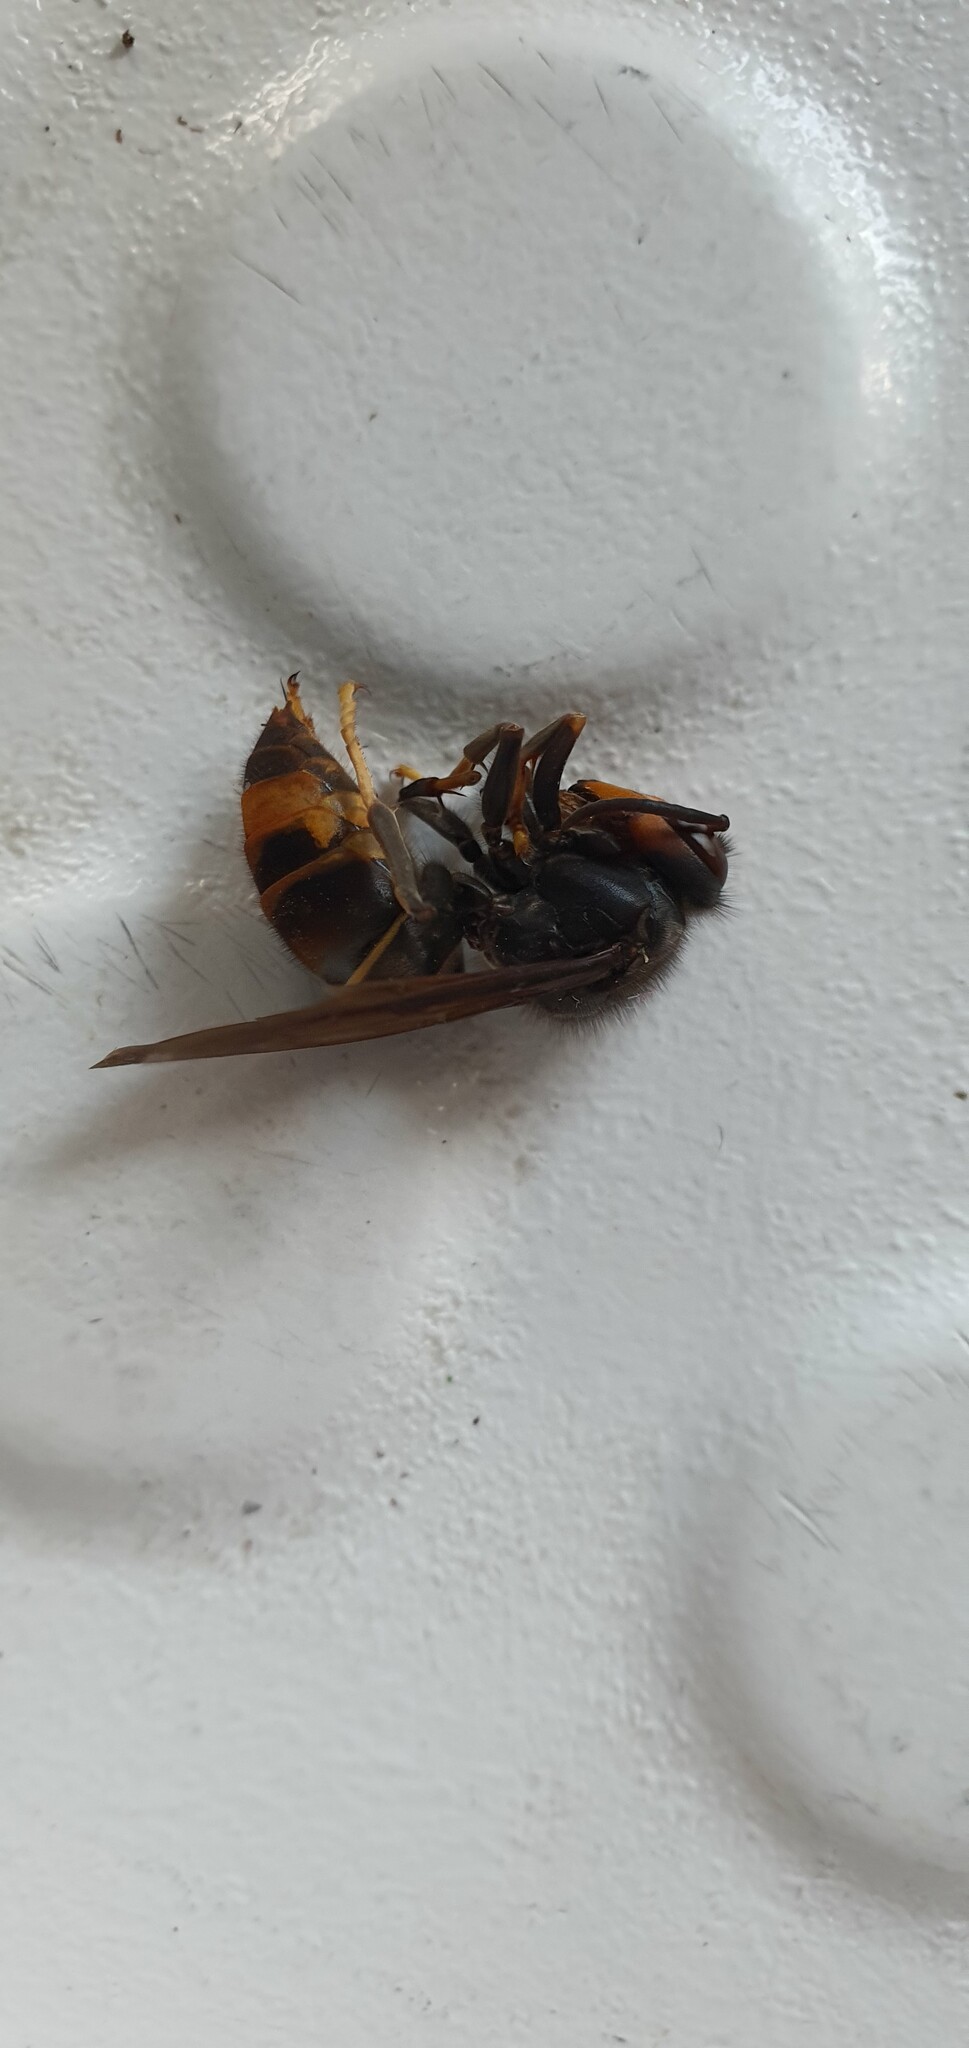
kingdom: Animalia
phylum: Arthropoda
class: Insecta
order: Hymenoptera
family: Vespidae
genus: Vespa
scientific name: Vespa velutina
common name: Asian hornet
